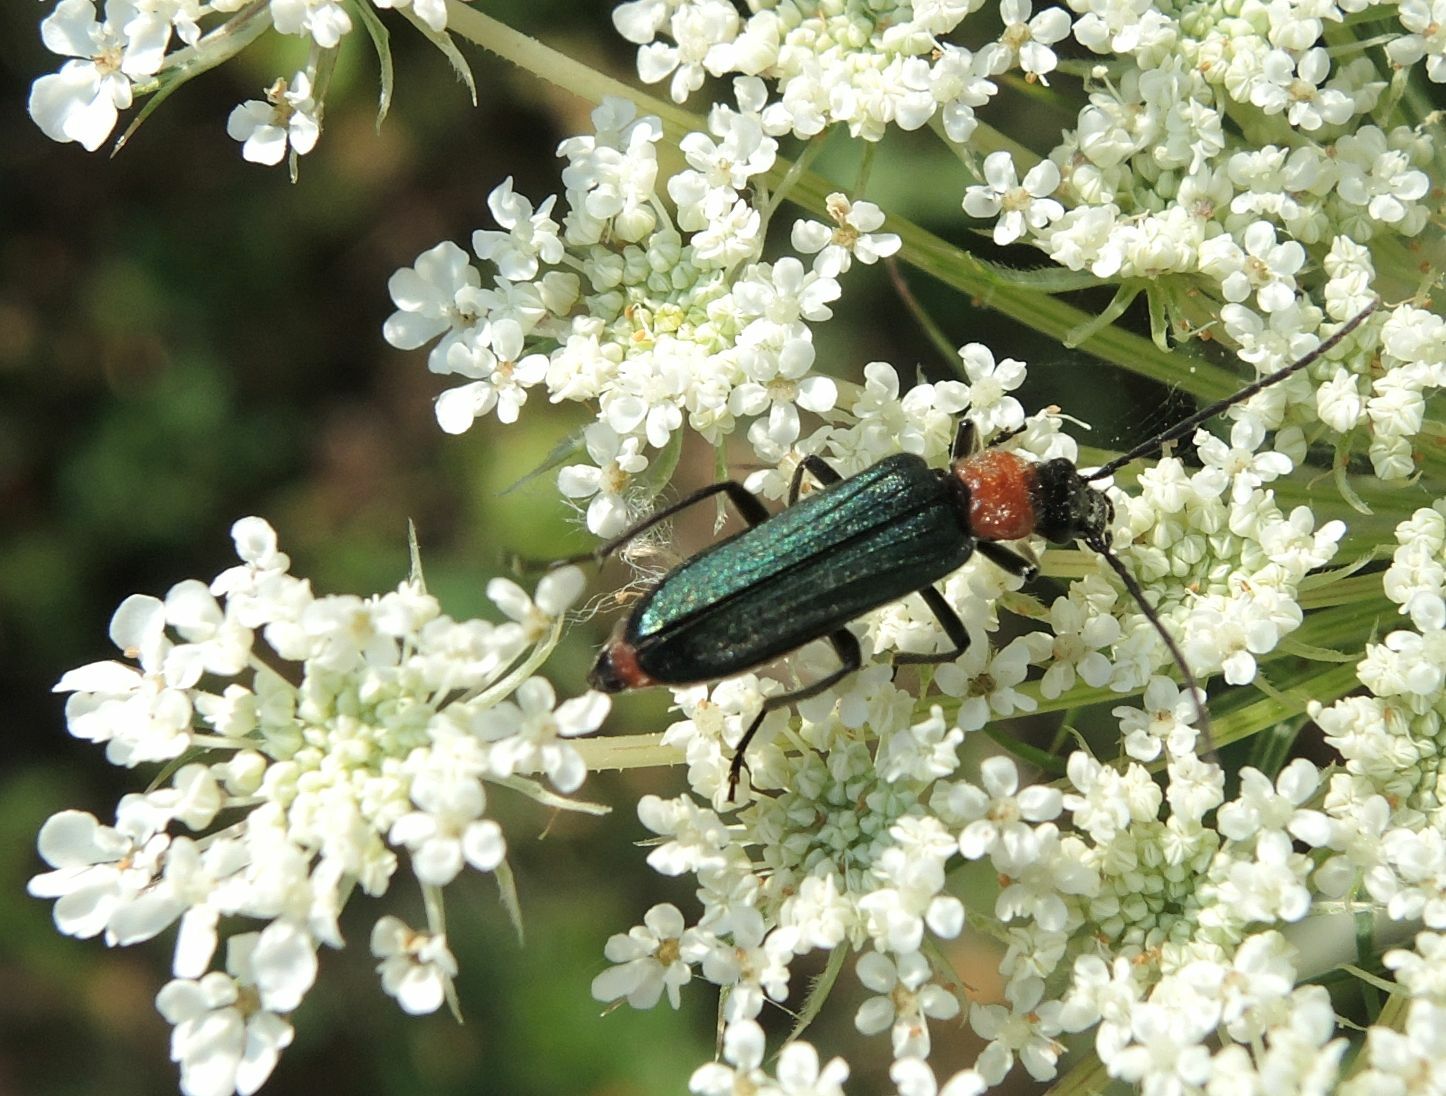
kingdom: Animalia
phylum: Arthropoda
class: Insecta
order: Coleoptera
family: Oedemeridae
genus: Anogcodes
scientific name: Anogcodes ruficollis
